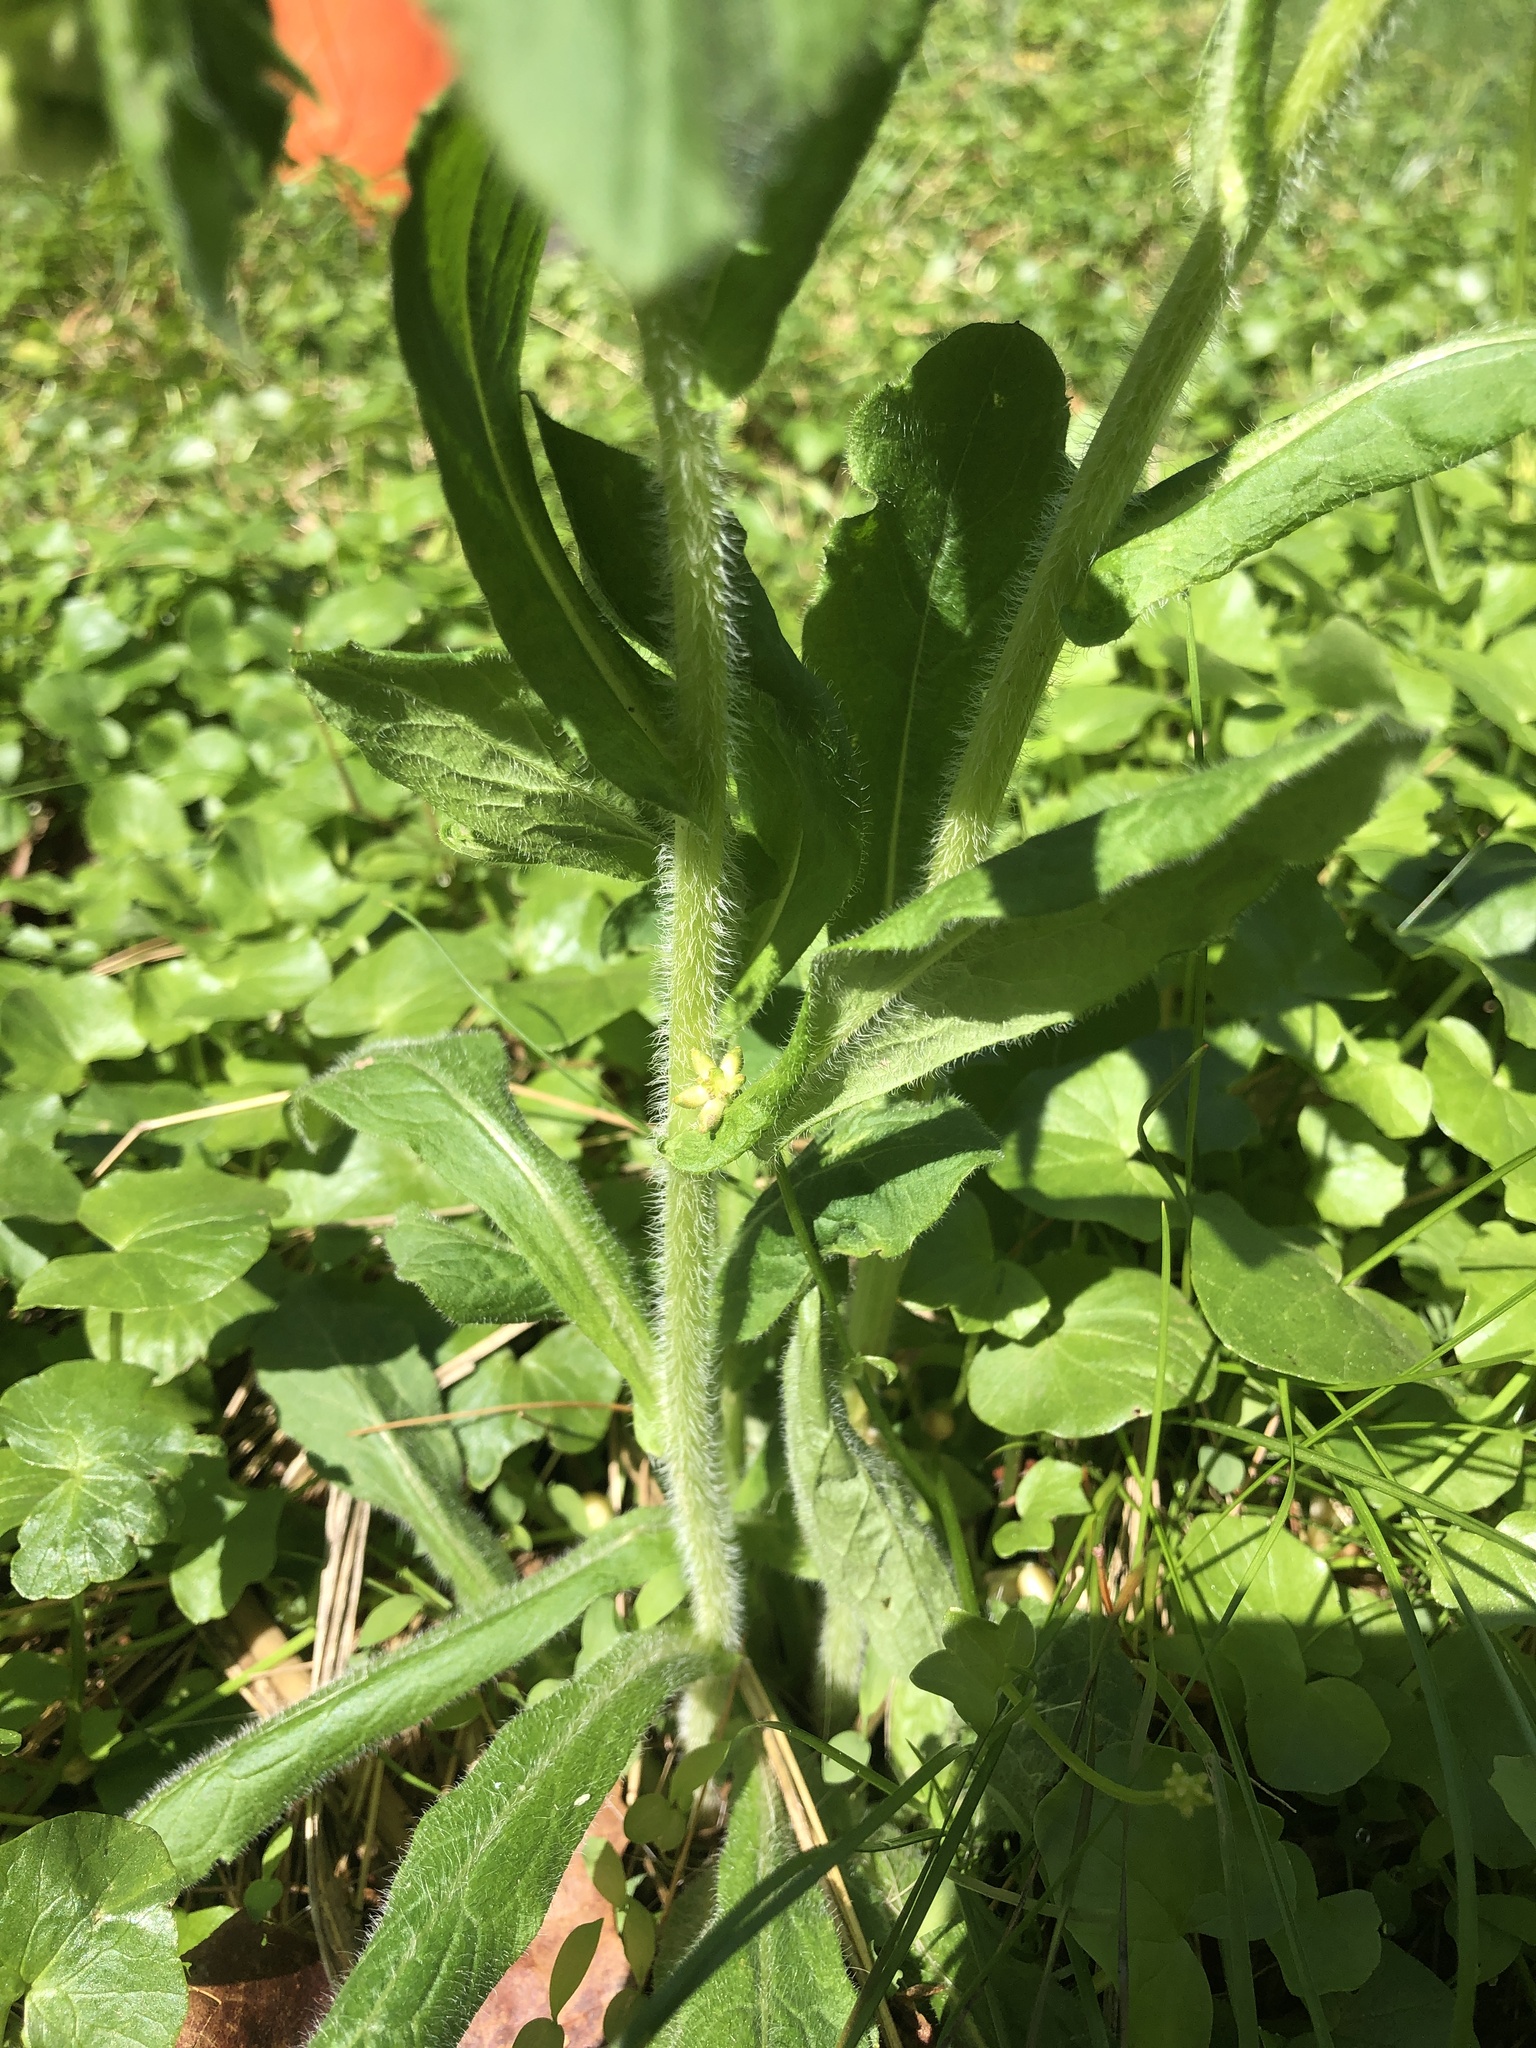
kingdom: Plantae
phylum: Tracheophyta
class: Magnoliopsida
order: Asterales
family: Asteraceae
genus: Erigeron
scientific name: Erigeron philadelphicus
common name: Robin's-plantain
